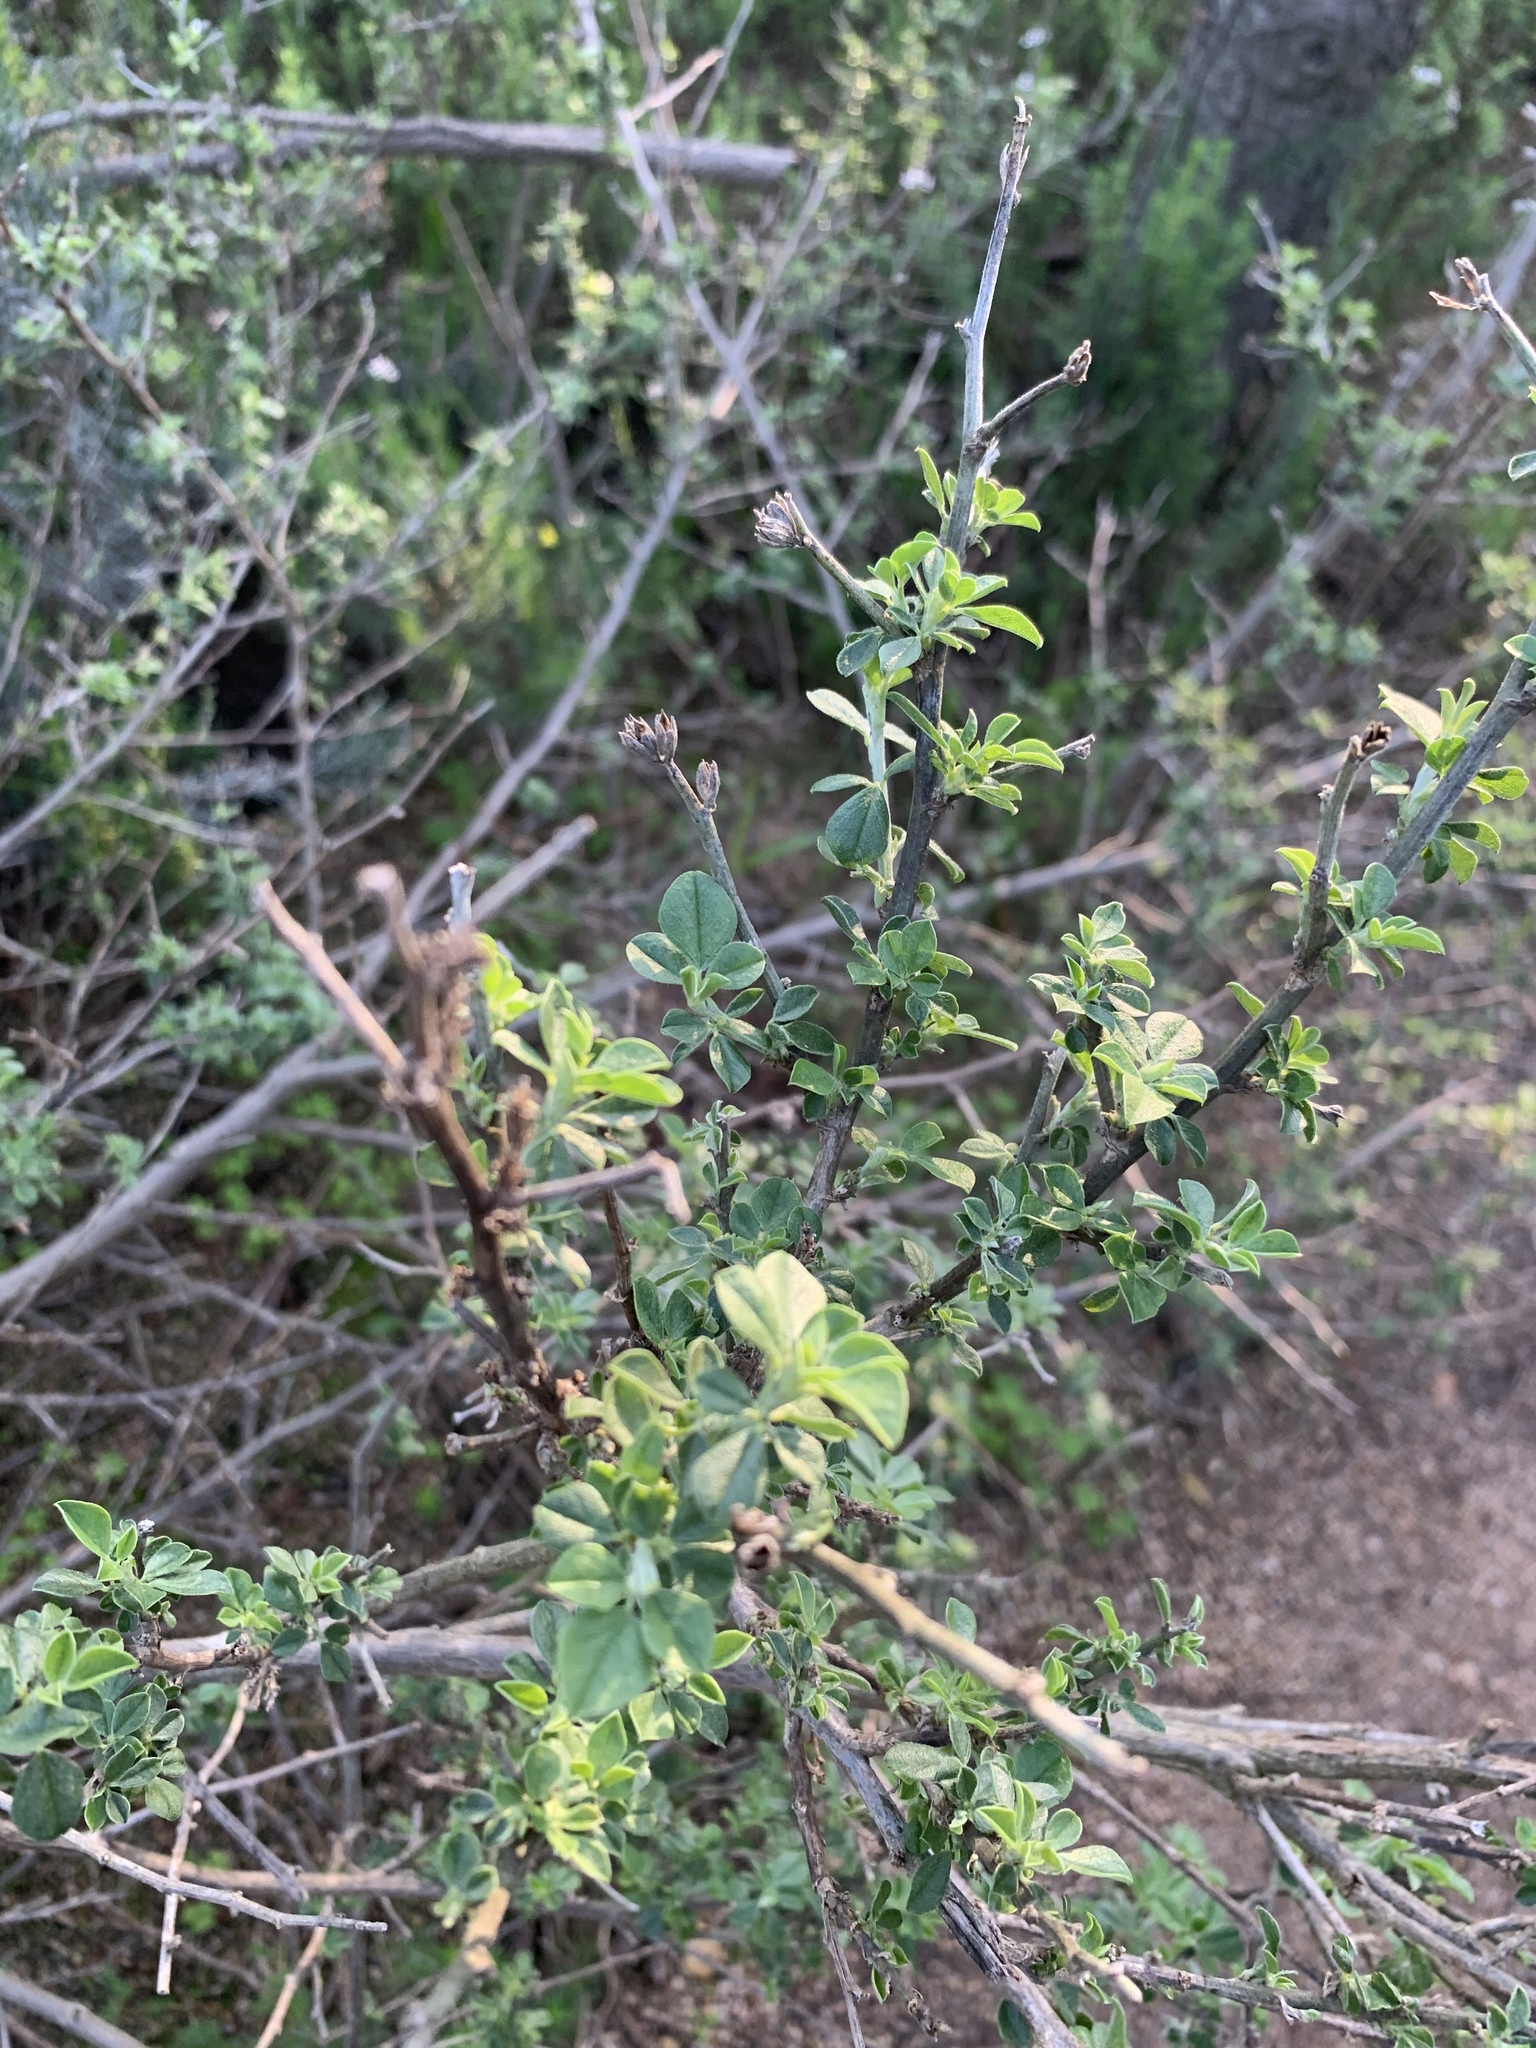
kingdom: Plantae
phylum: Tracheophyta
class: Magnoliopsida
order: Fabales
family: Fabaceae
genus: Psoralea
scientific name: Psoralea hirta
